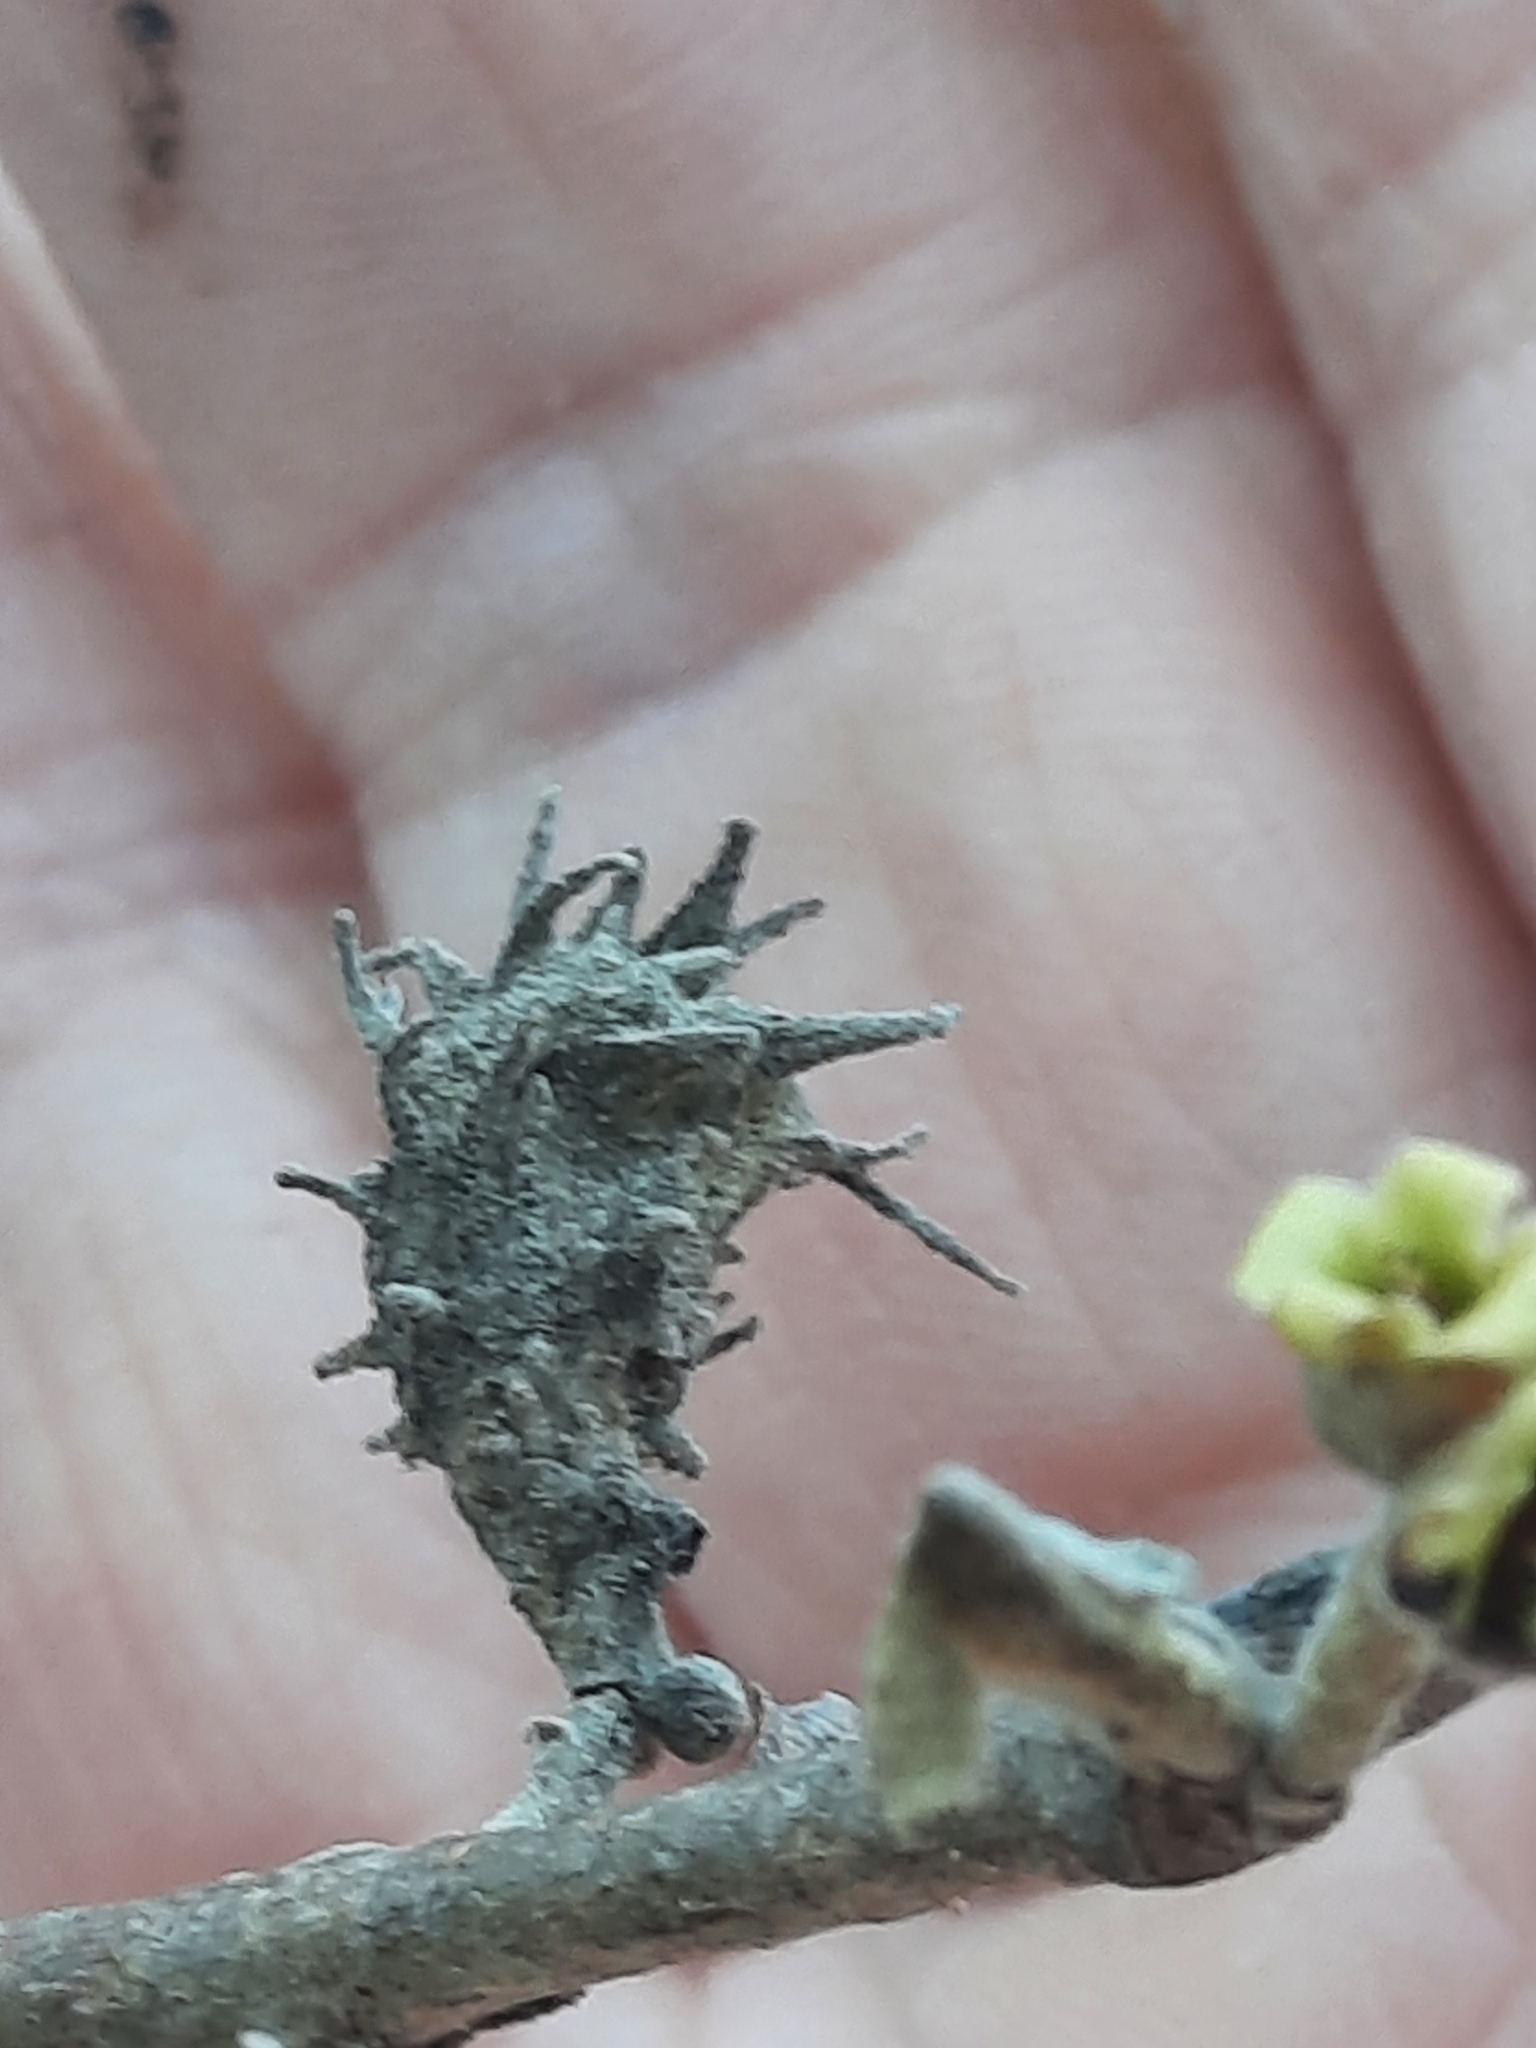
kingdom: Animalia
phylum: Arthropoda
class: Insecta
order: Hemiptera
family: Aphididae
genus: Hamamelistes
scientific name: Hamamelistes spinosus
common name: Witch hazel gall aphid
